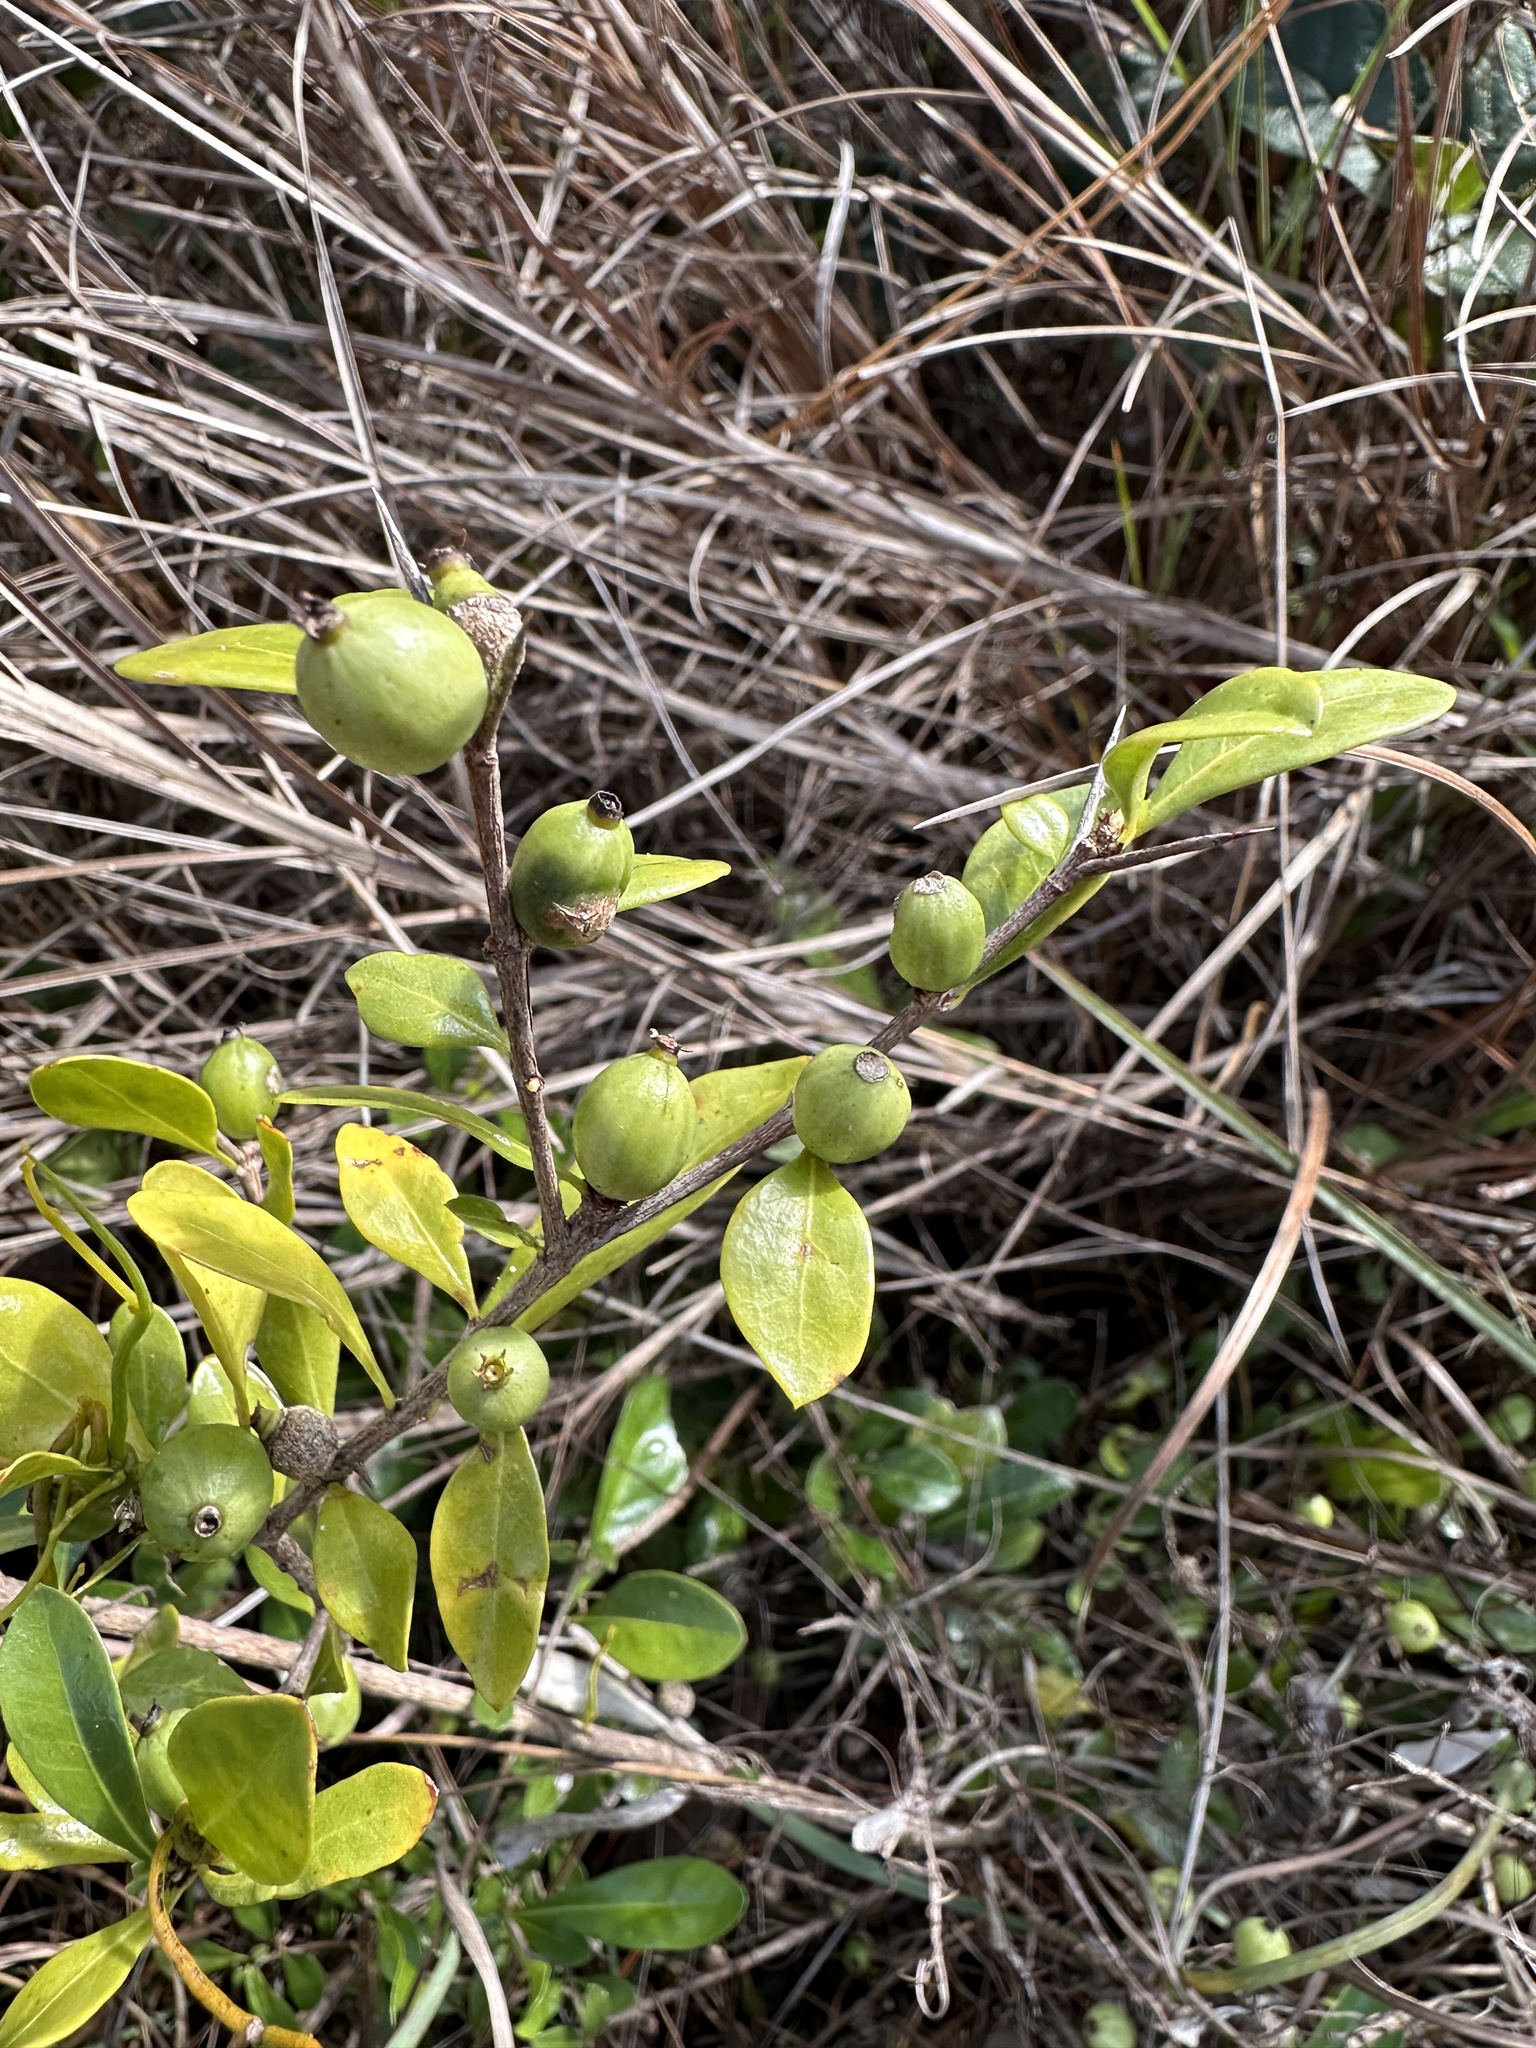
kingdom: Plantae
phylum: Tracheophyta
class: Magnoliopsida
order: Gentianales
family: Rubiaceae
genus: Randia
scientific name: Randia aculeata
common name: Inkberry
